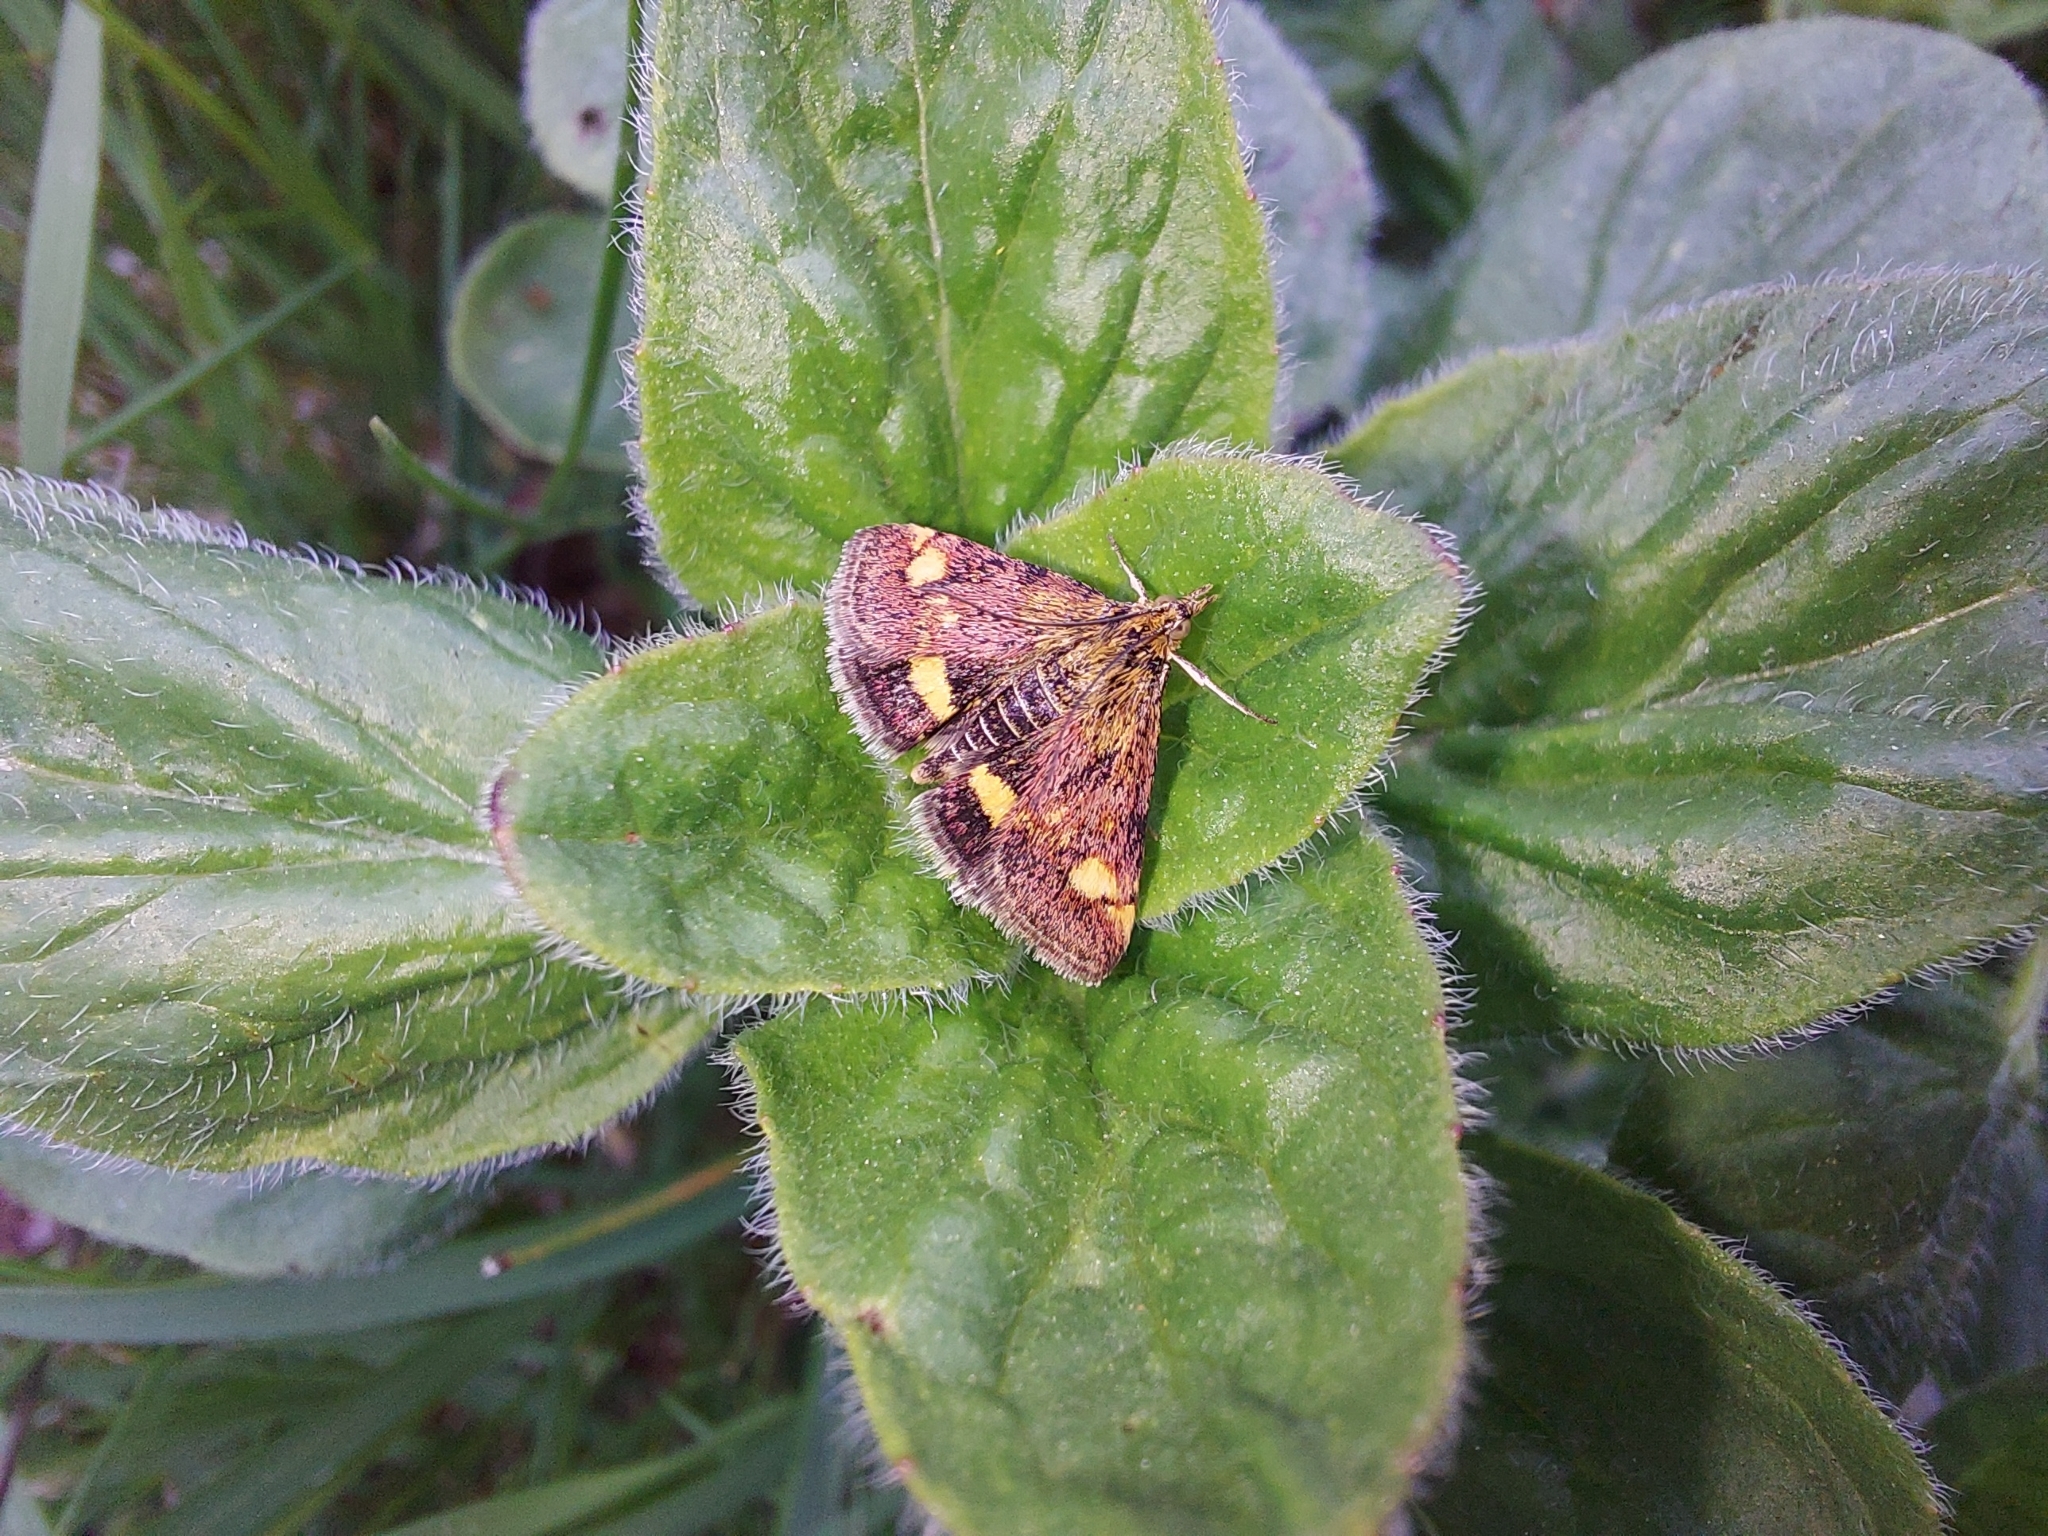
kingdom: Animalia
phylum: Arthropoda
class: Insecta
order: Lepidoptera
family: Crambidae
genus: Pyrausta
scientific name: Pyrausta aurata
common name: Small purple & gold
